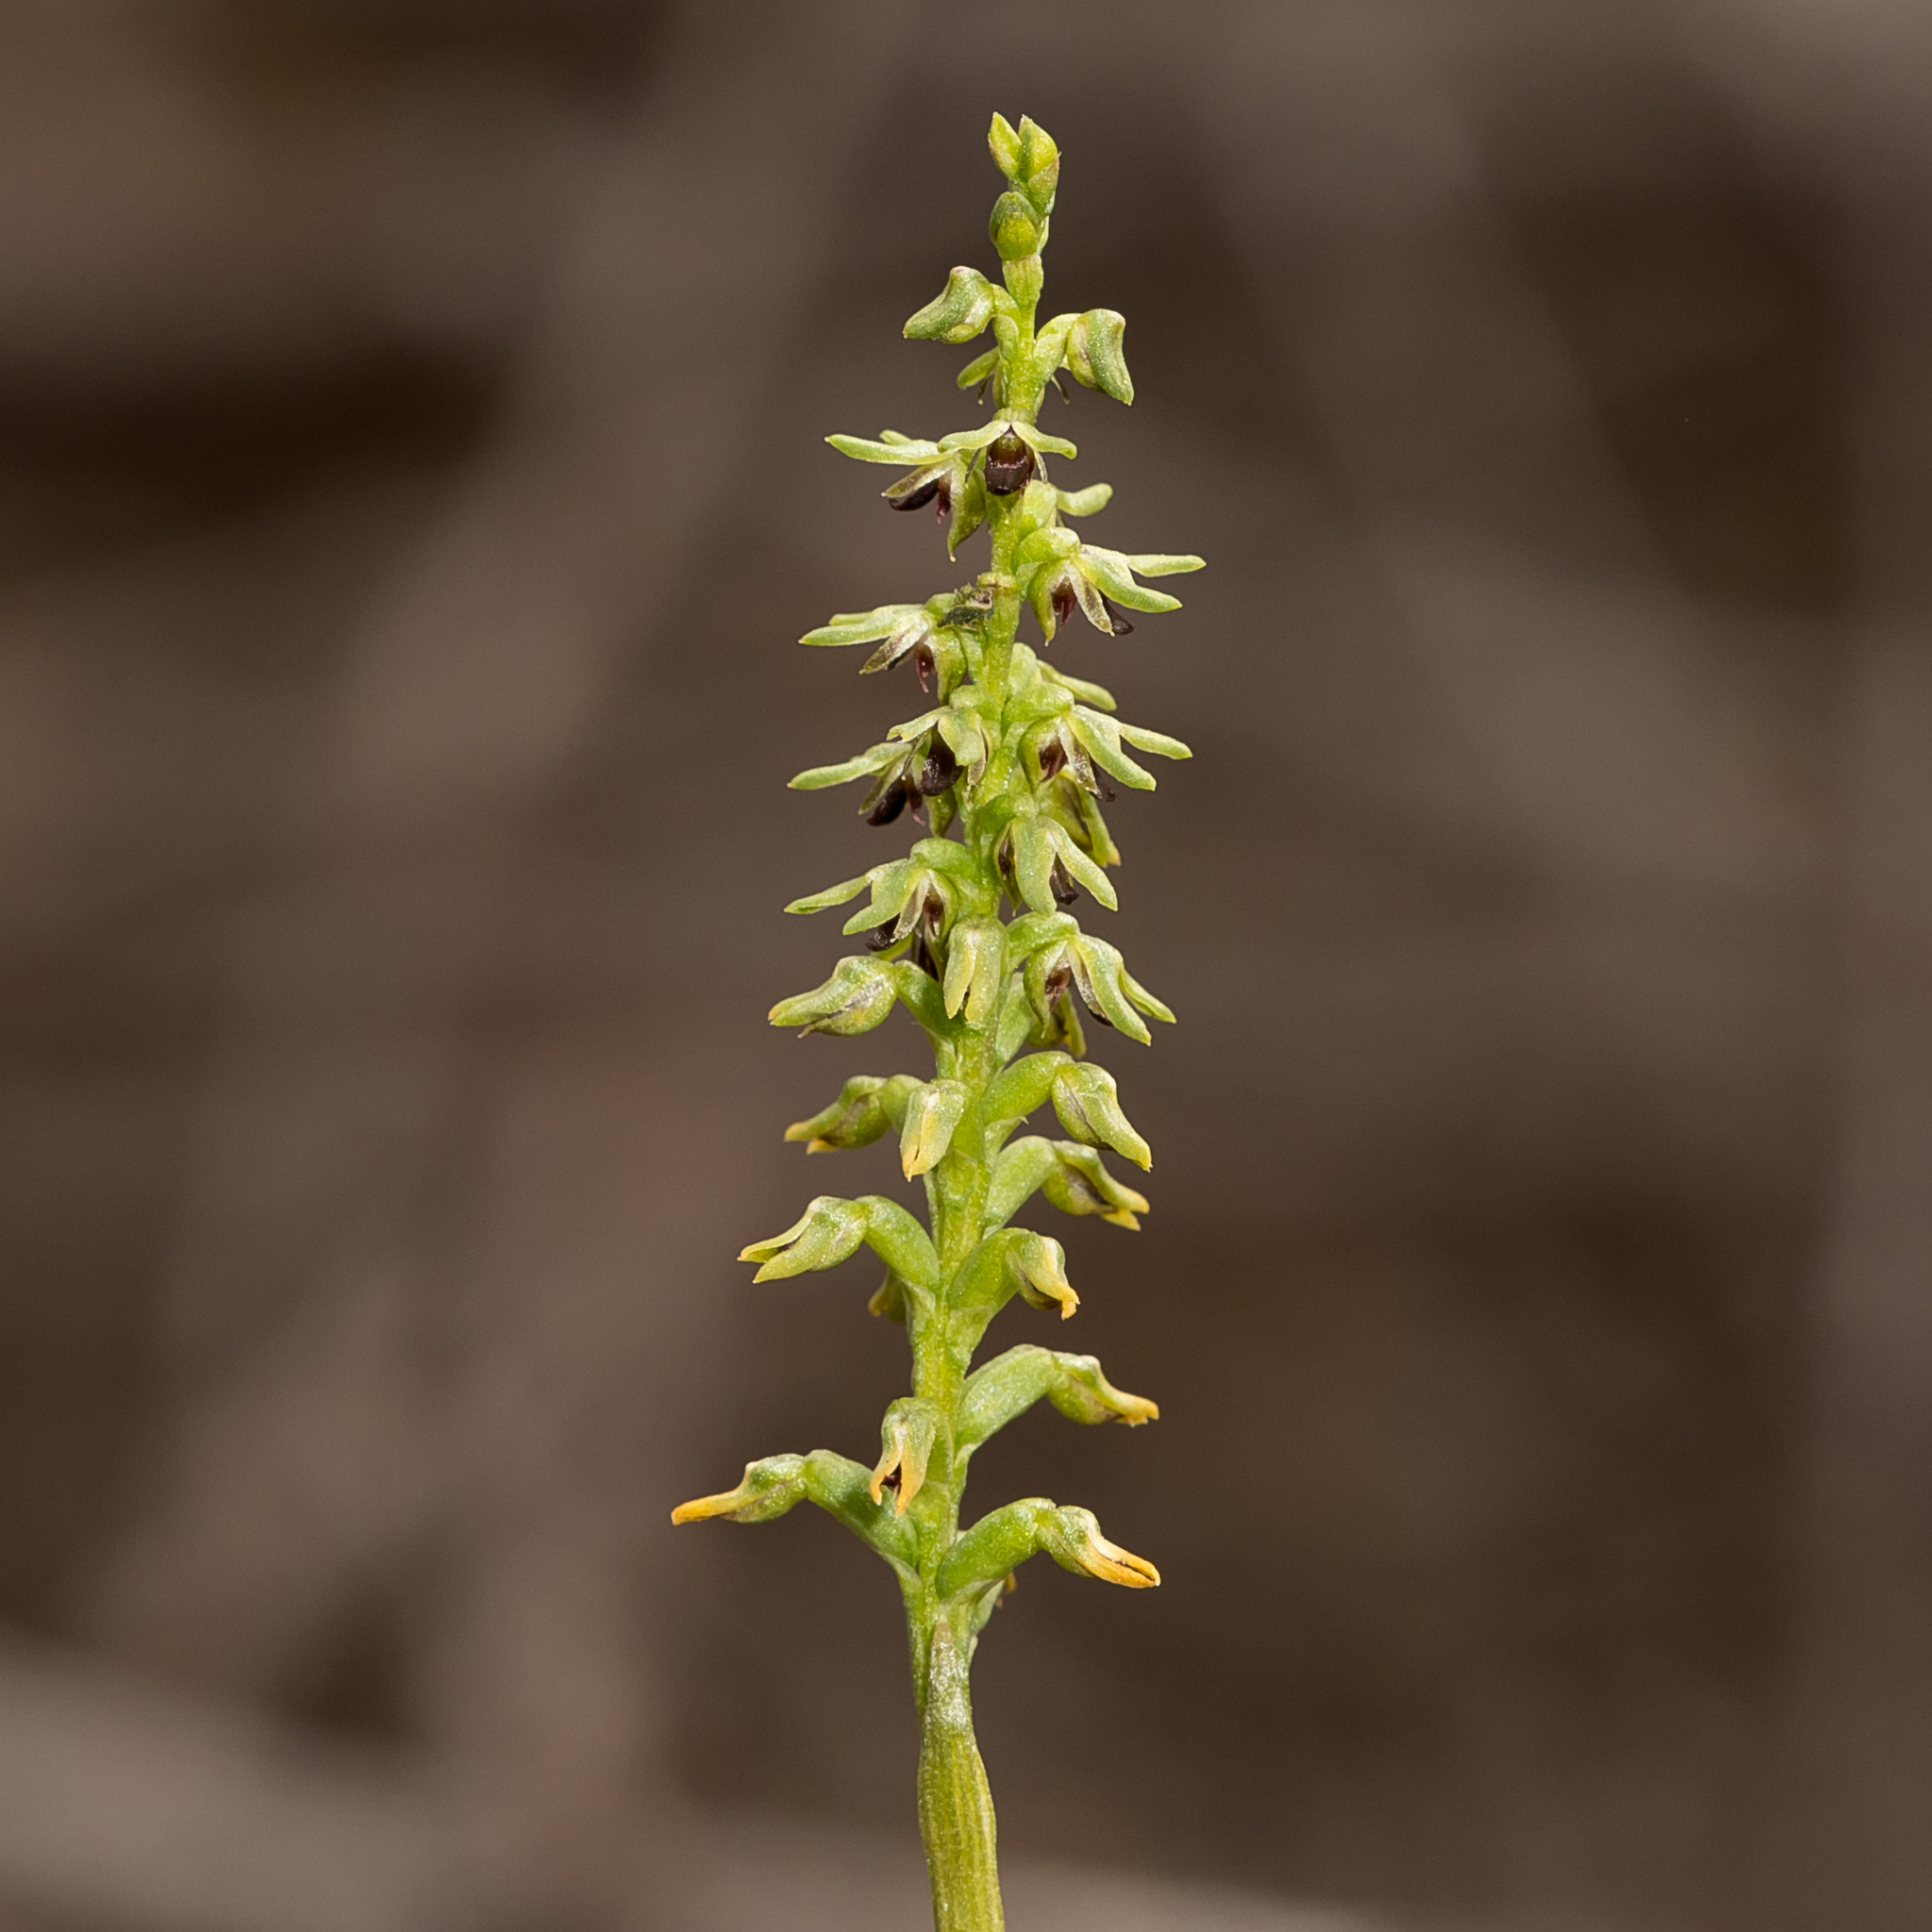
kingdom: Plantae
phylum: Tracheophyta
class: Liliopsida
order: Asparagales
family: Orchidaceae
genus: Genoplesium
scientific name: Genoplesium
